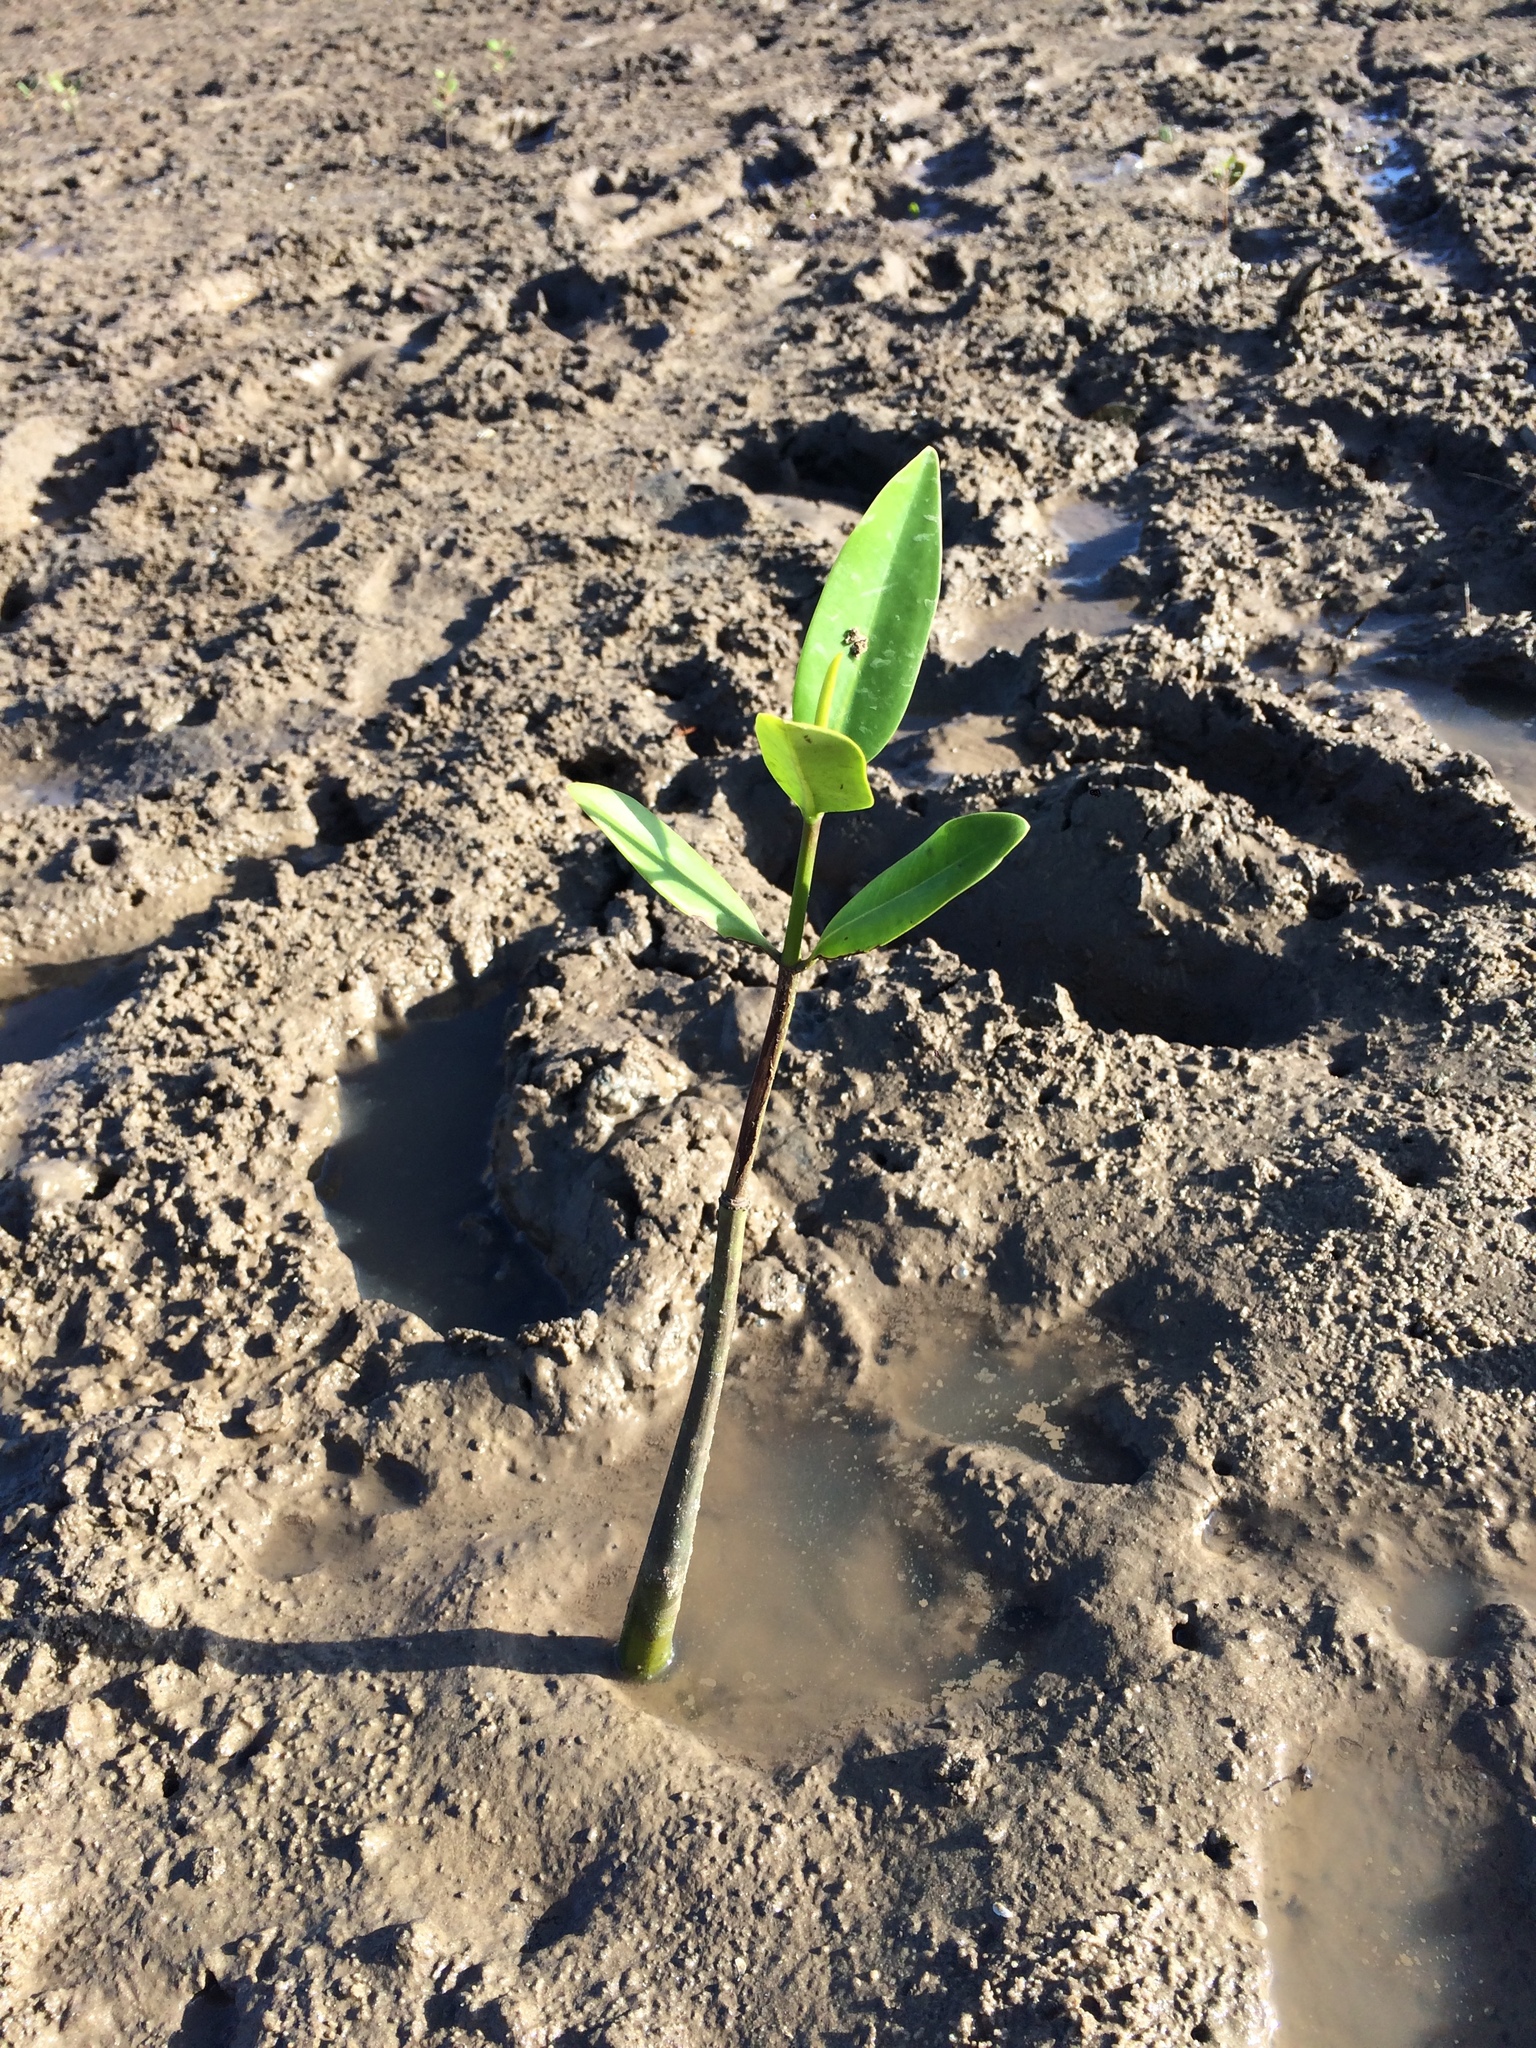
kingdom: Plantae
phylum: Tracheophyta
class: Magnoliopsida
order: Malpighiales
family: Rhizophoraceae
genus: Rhizophora
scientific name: Rhizophora mangle
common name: Red mangrove
